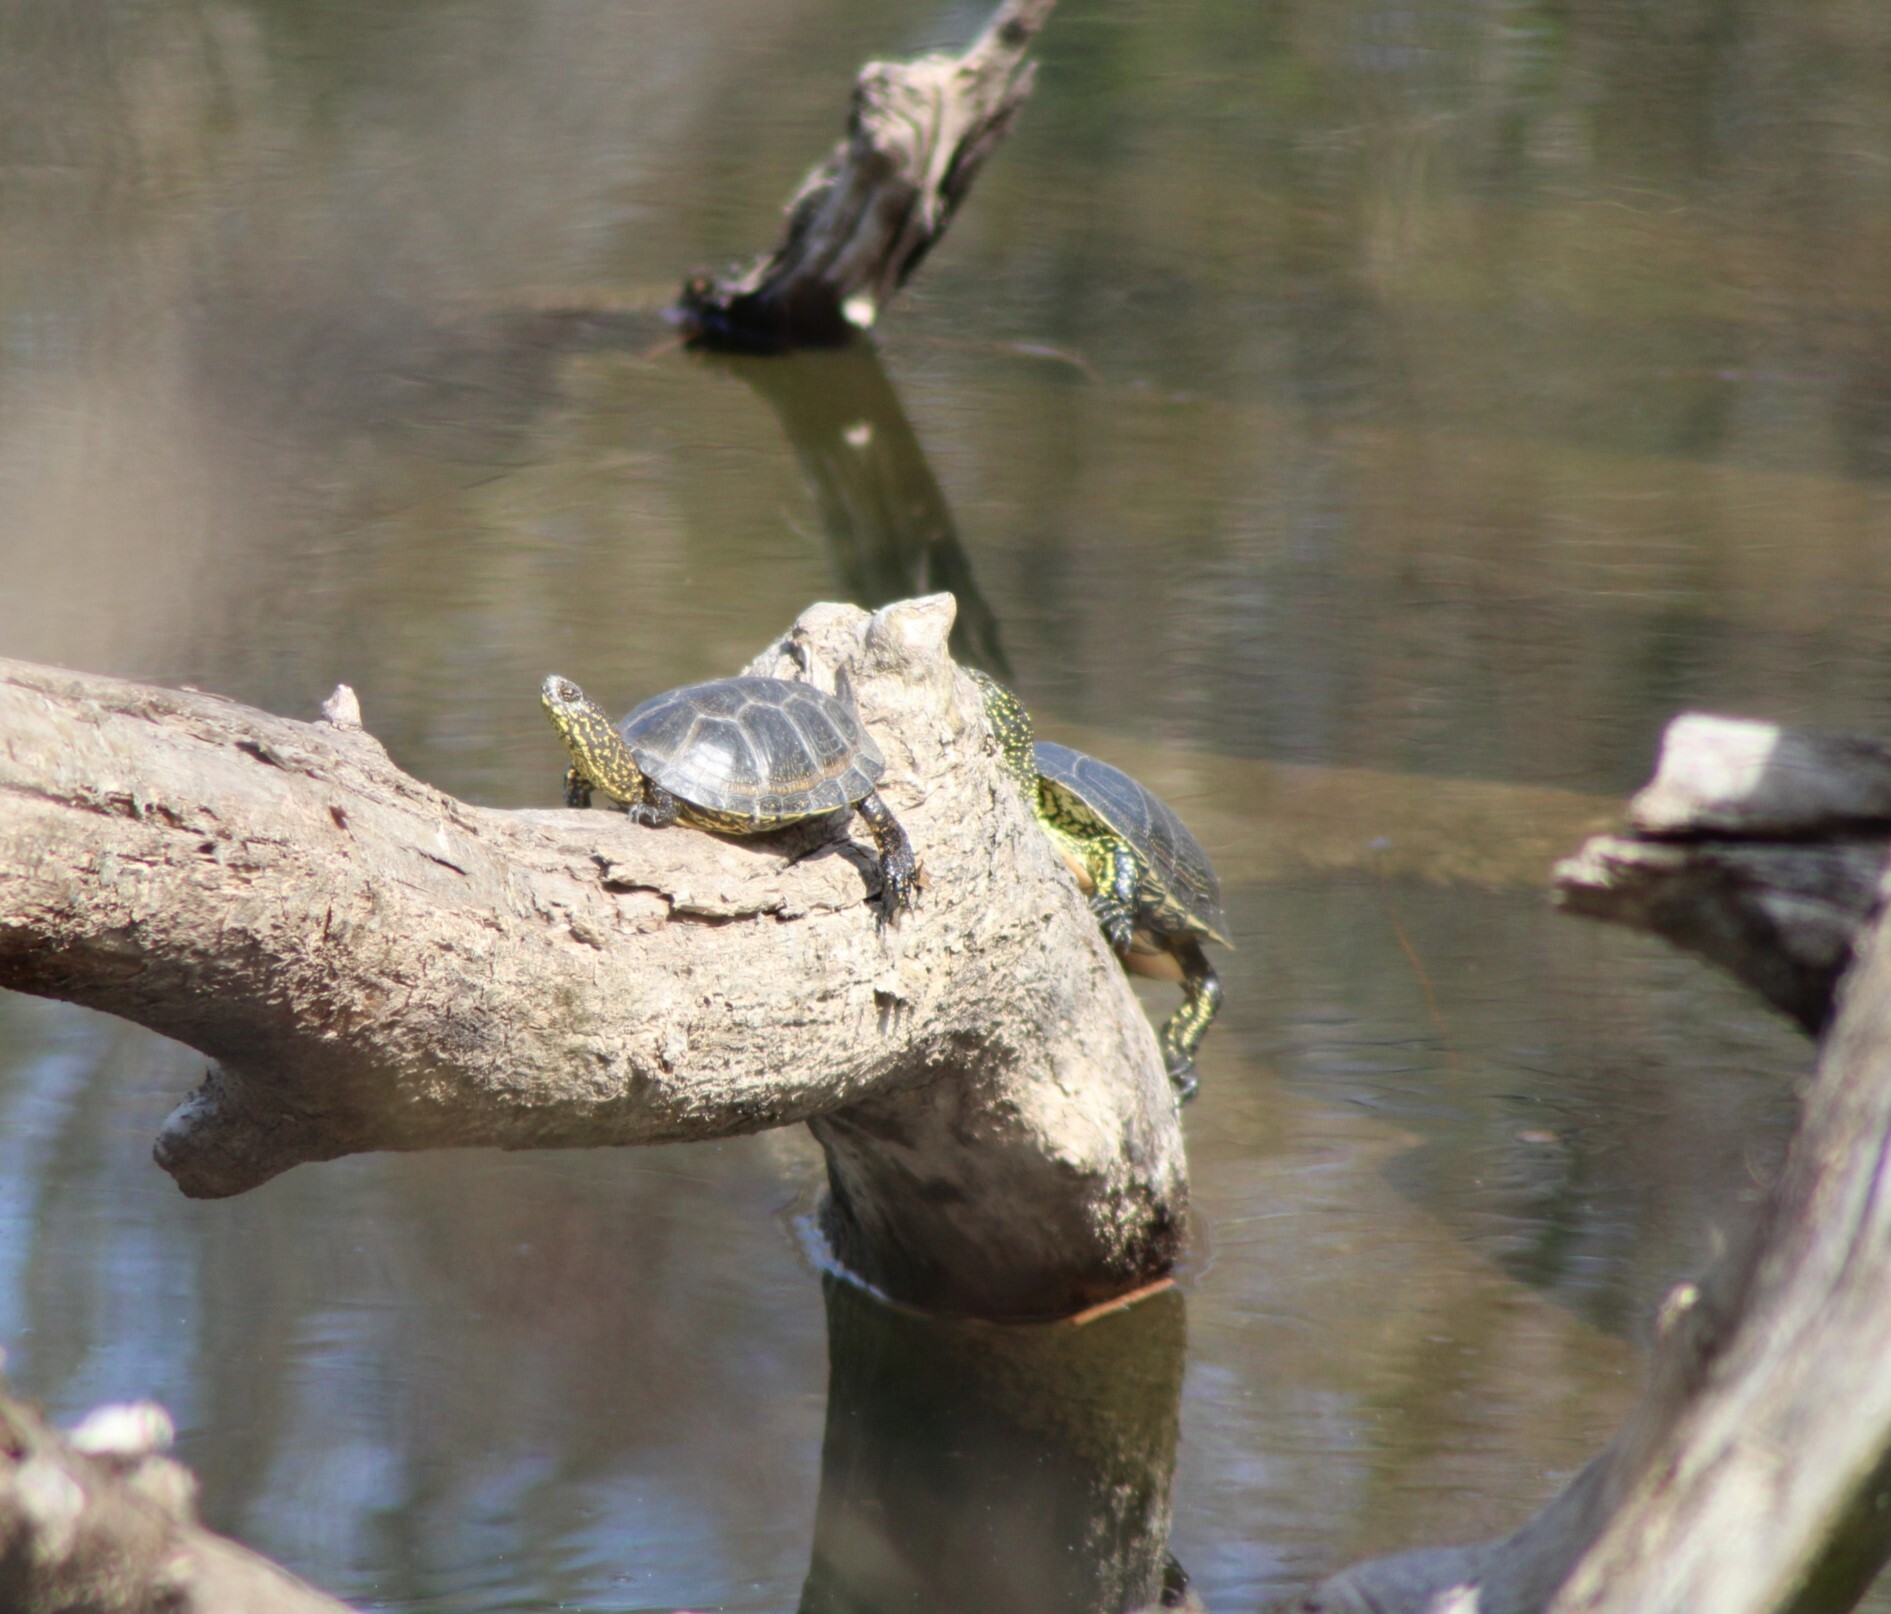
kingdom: Animalia
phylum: Chordata
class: Testudines
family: Emydidae
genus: Emys
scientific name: Emys orbicularis
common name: European pond turtle
